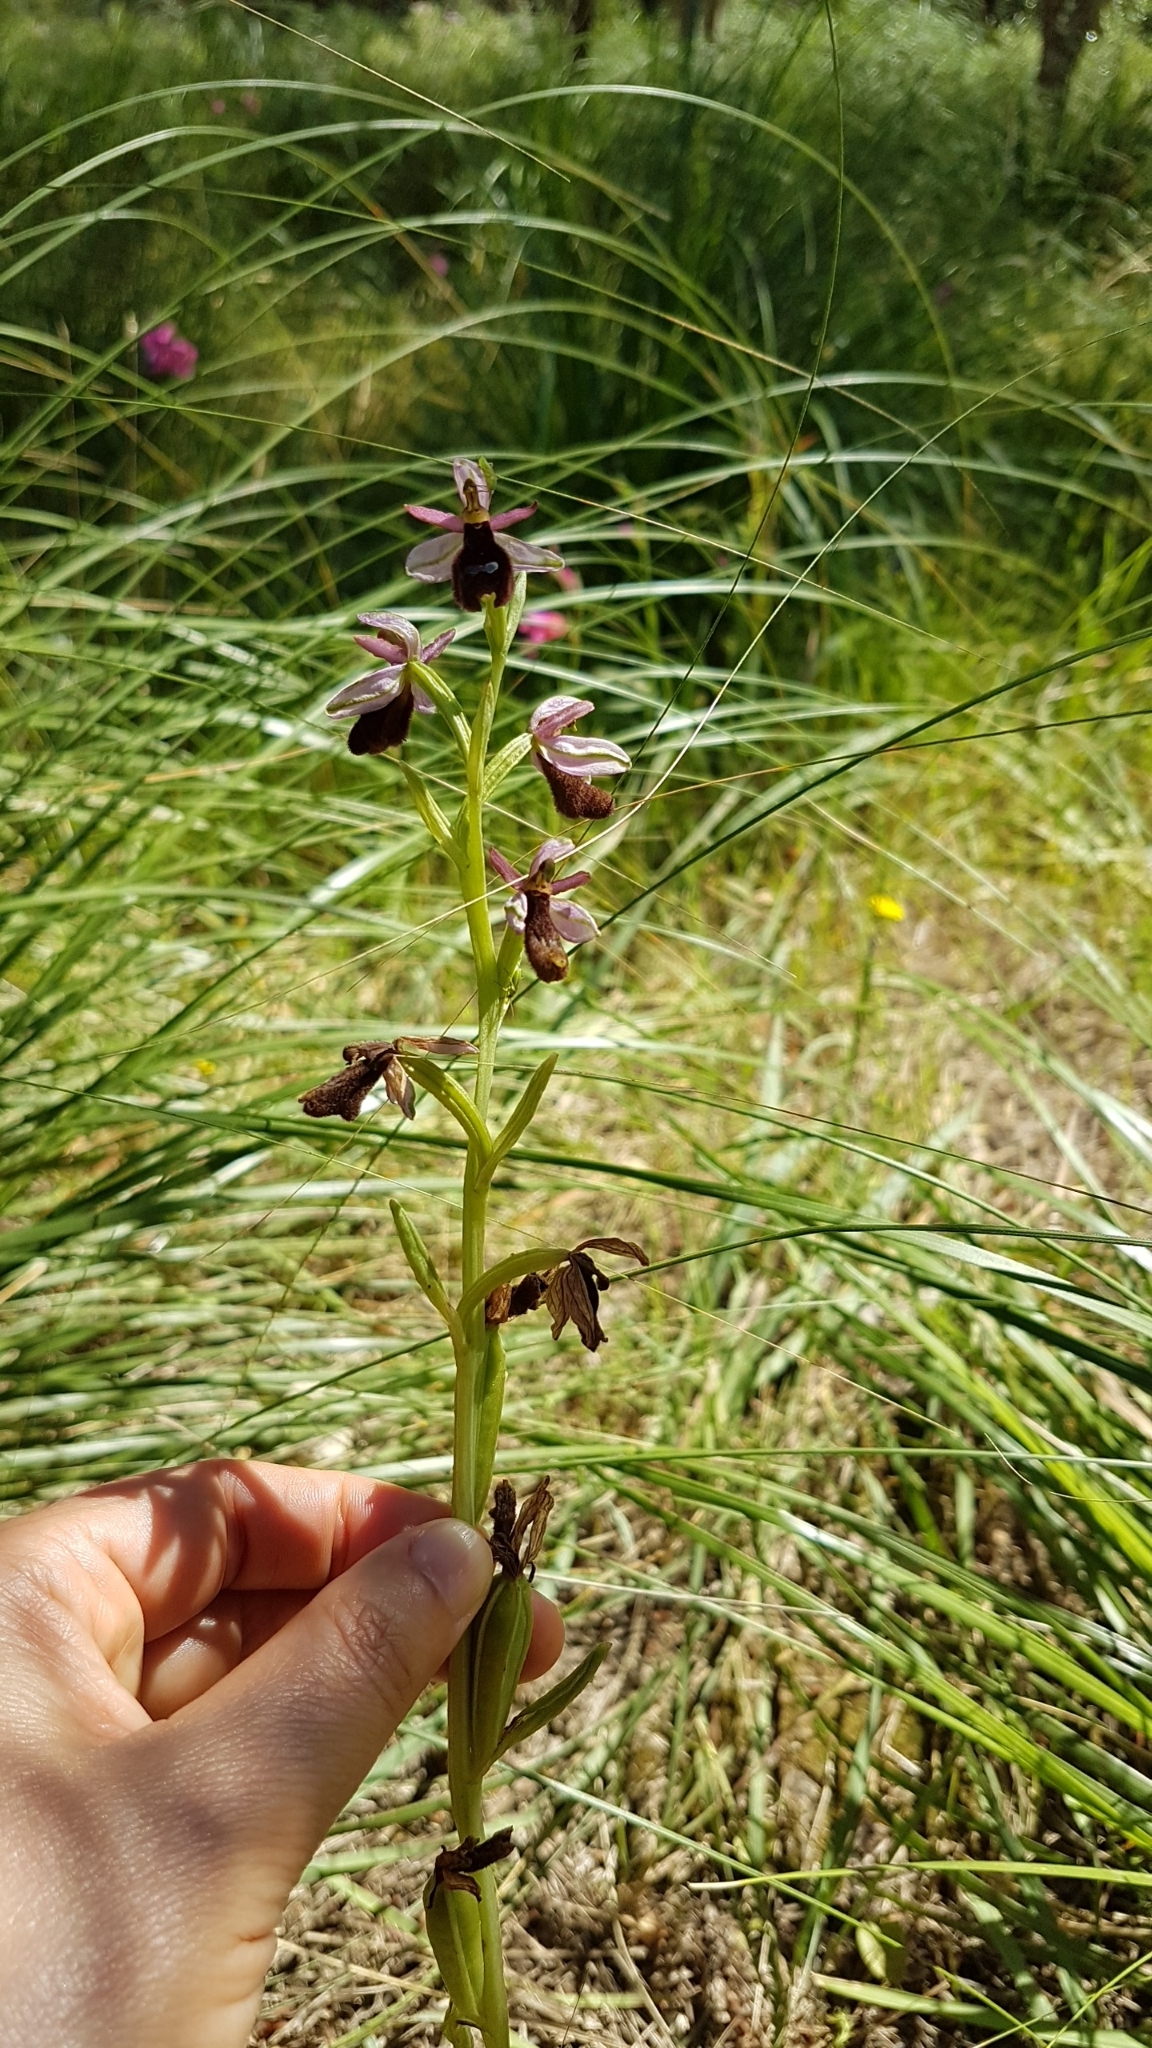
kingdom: Plantae
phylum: Tracheophyta
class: Liliopsida
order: Asparagales
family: Orchidaceae
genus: Ophrys
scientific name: Ophrys flavicans
